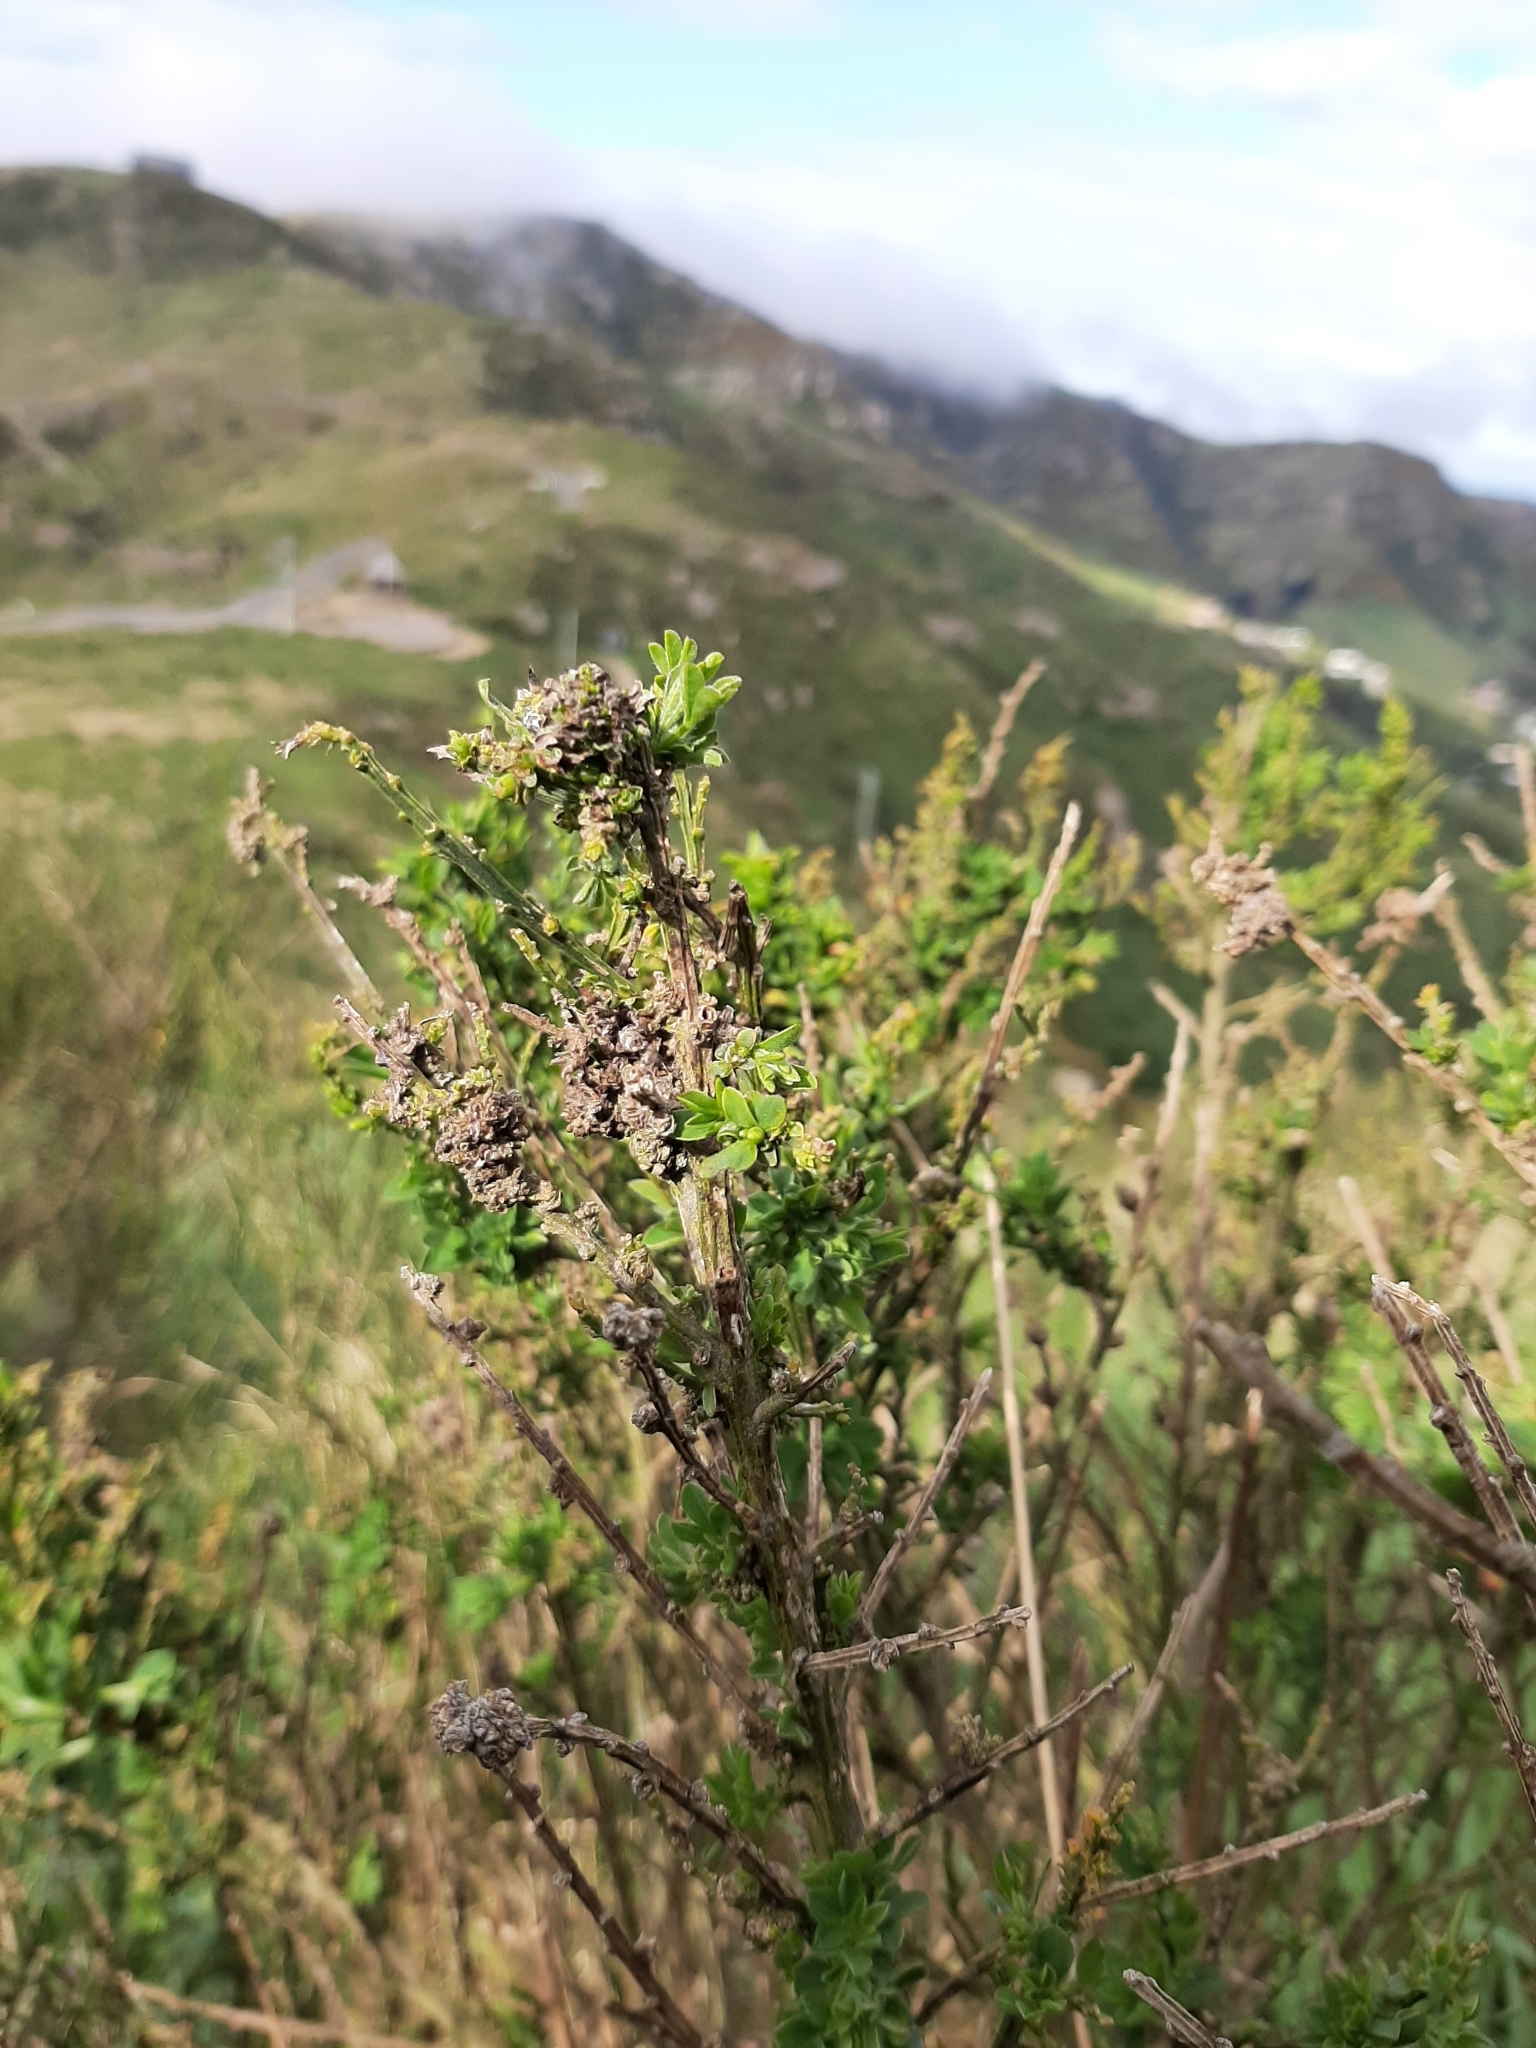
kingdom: Animalia
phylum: Arthropoda
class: Arachnida
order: Trombidiformes
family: Eriophyidae
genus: Aceria
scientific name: Aceria genistae
